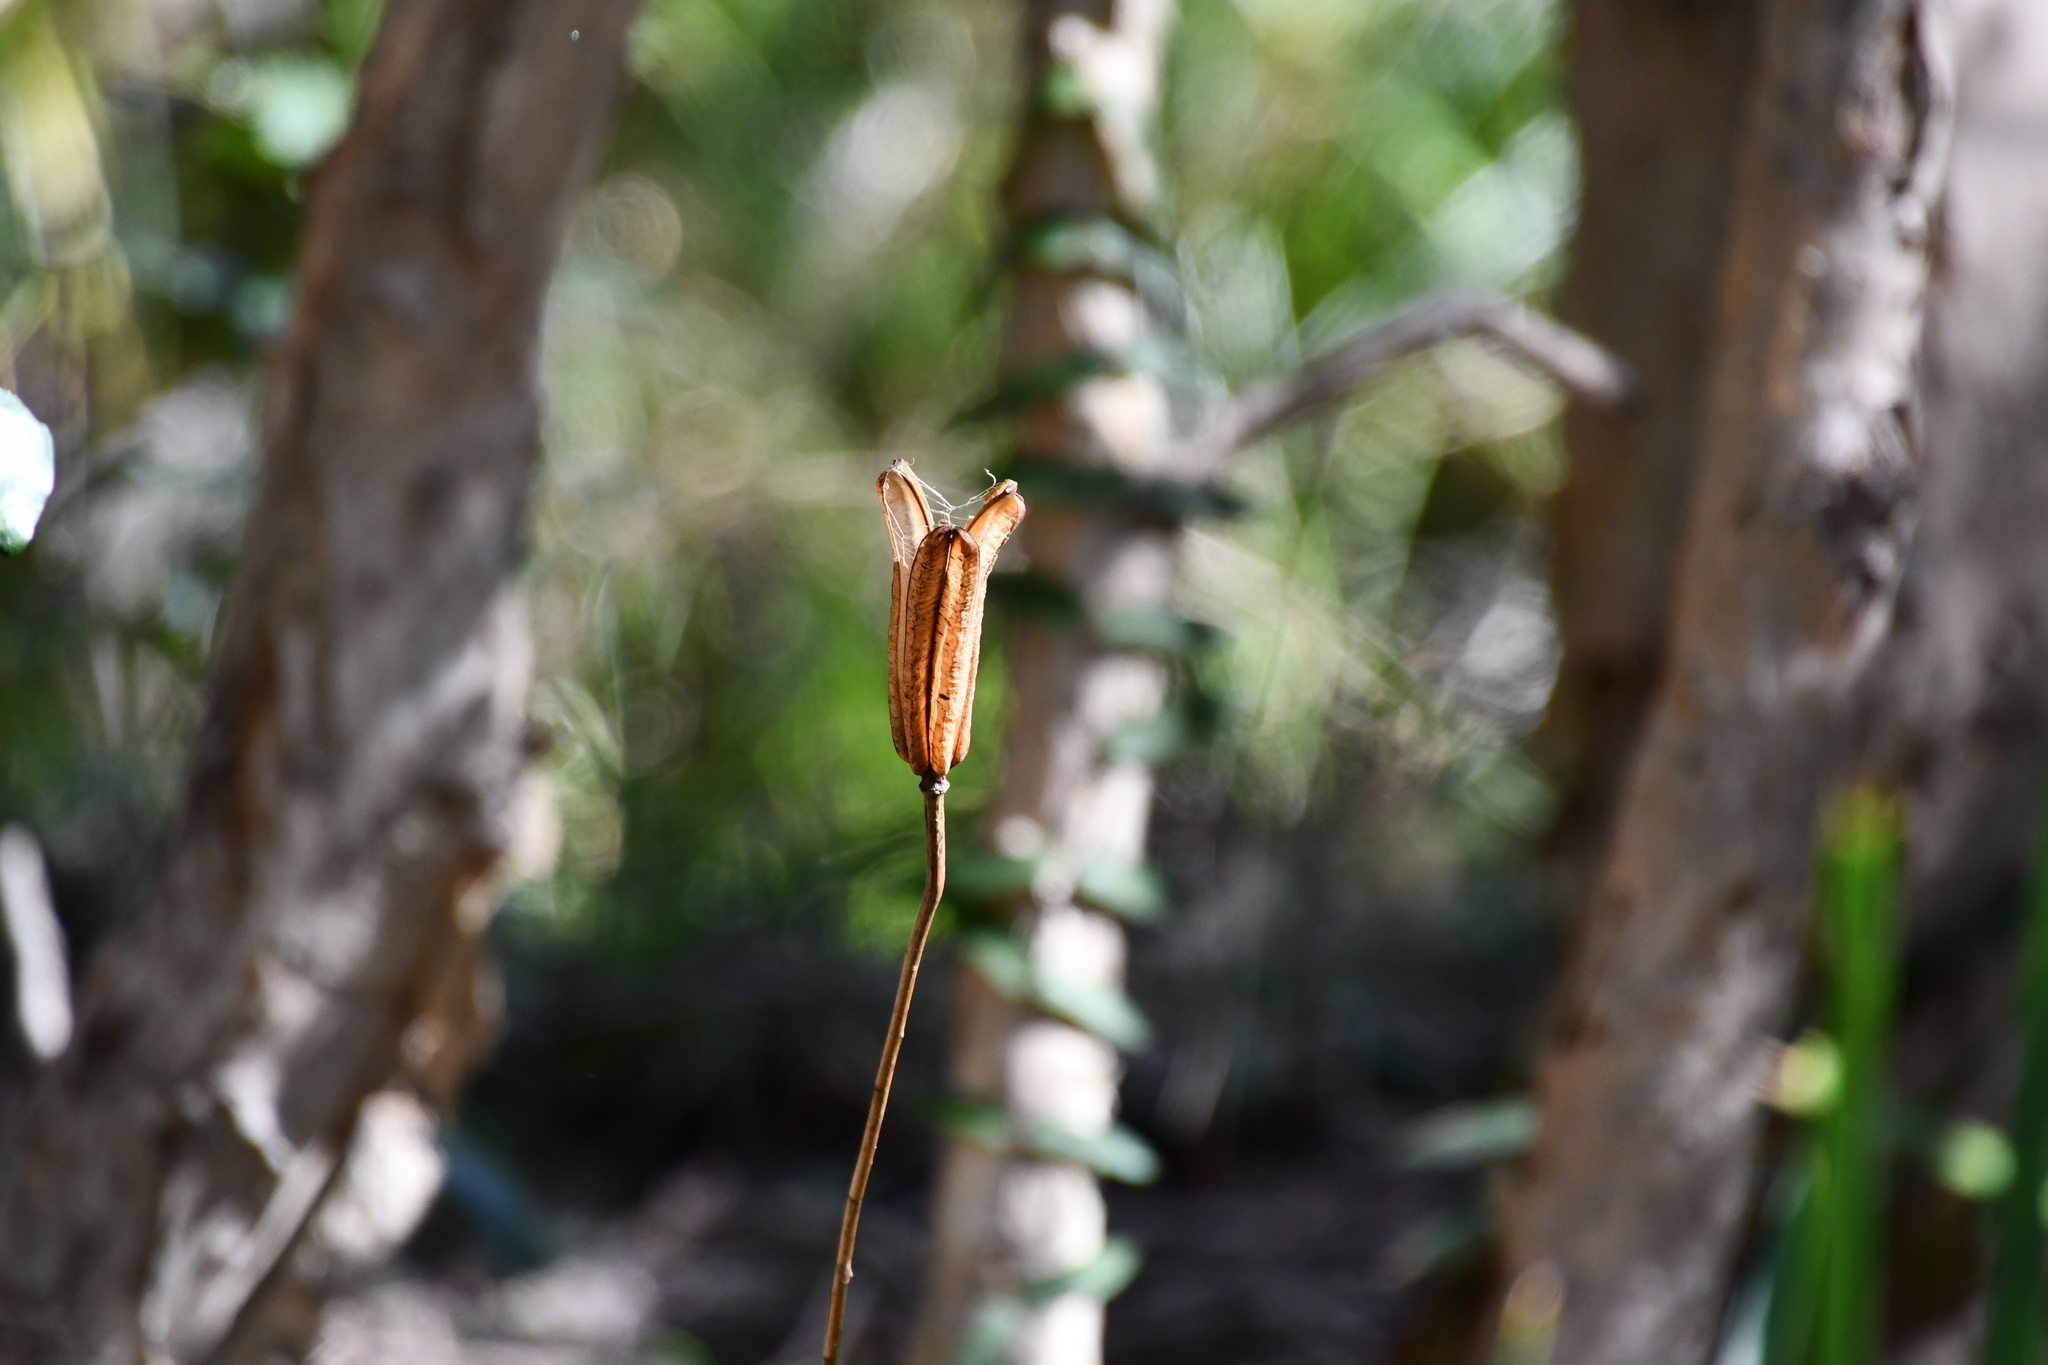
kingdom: Plantae
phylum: Tracheophyta
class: Liliopsida
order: Liliales
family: Liliaceae
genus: Lilium
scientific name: Lilium formosanum
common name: Formosa lily
